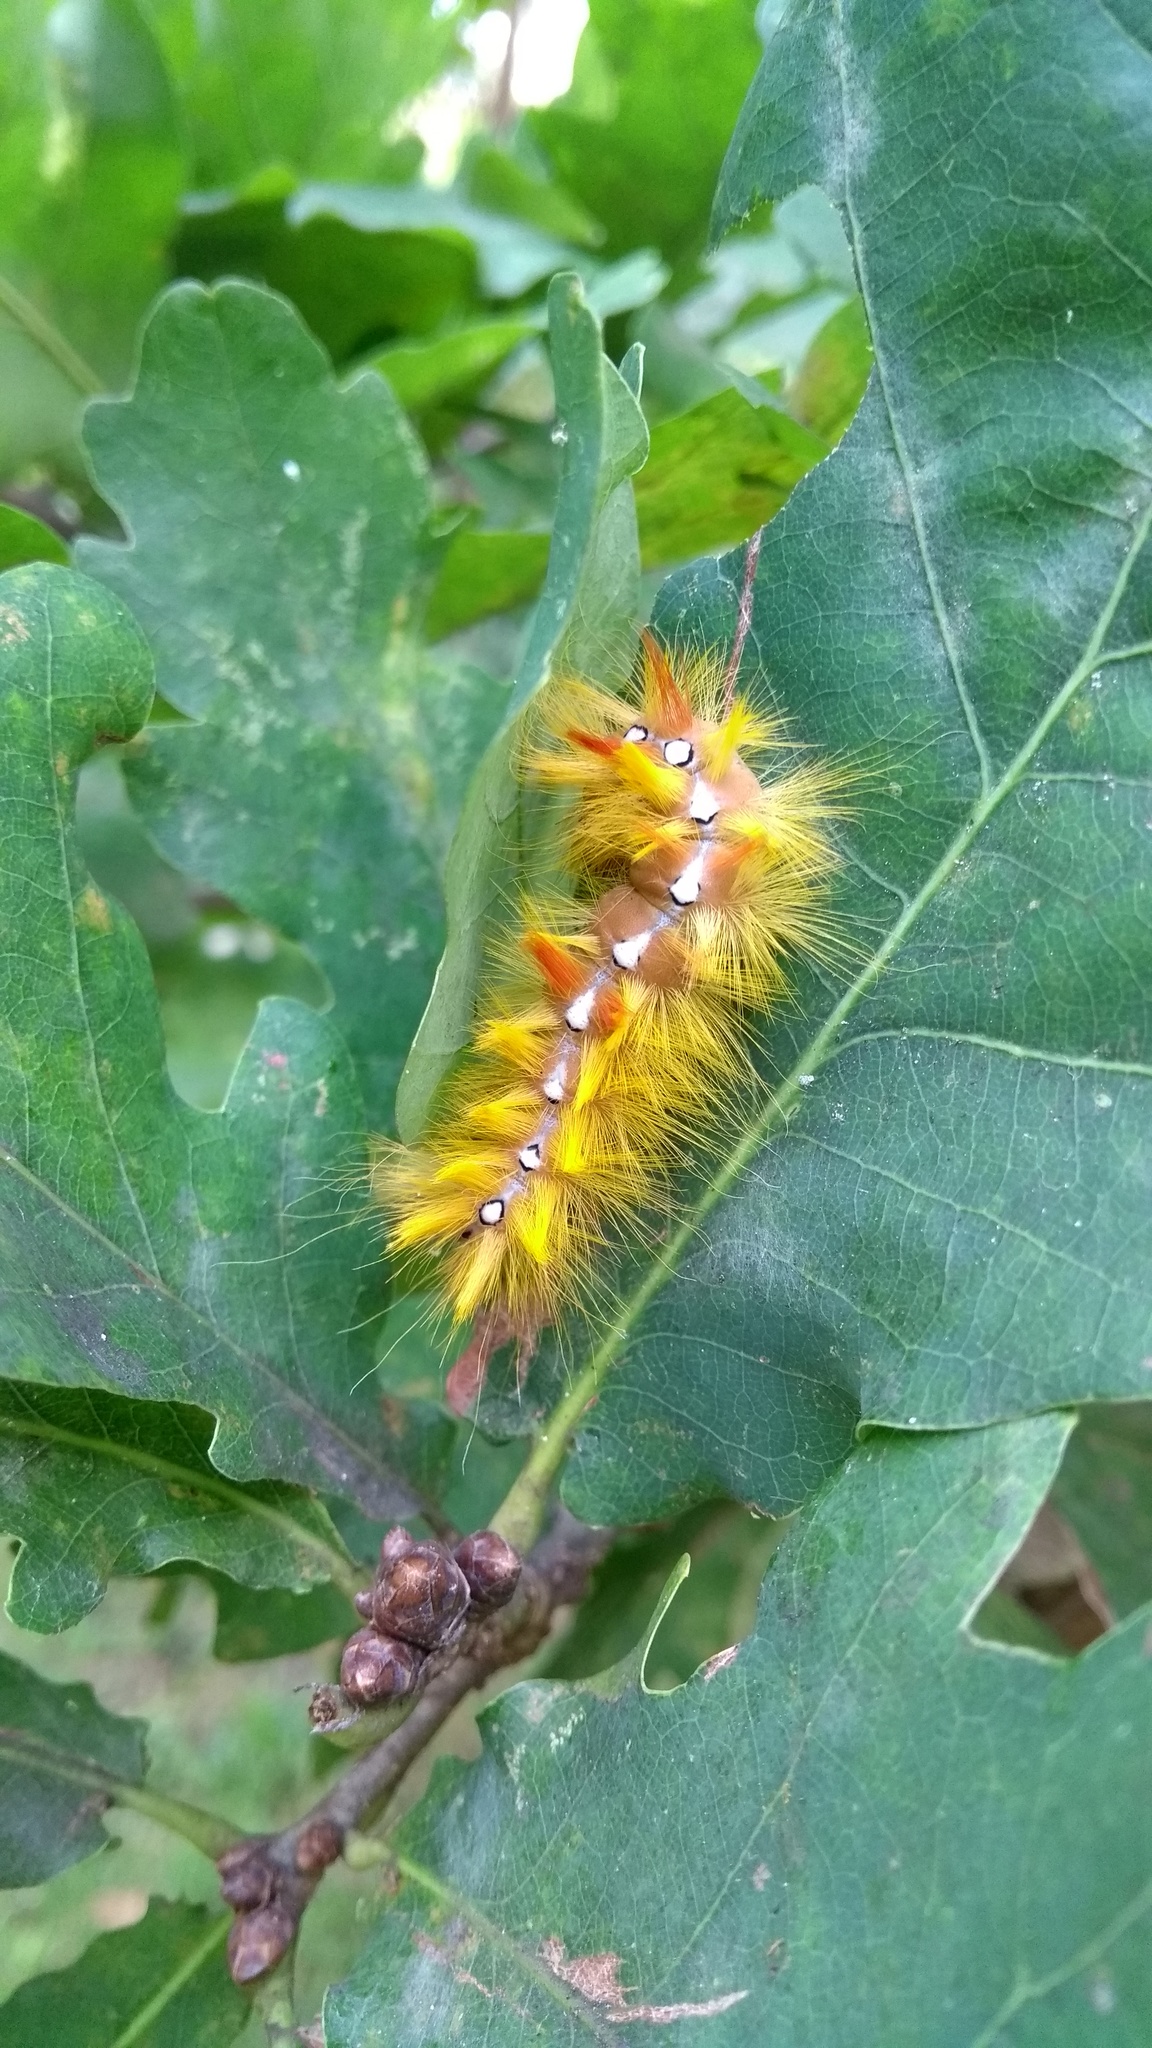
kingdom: Animalia
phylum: Arthropoda
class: Insecta
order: Lepidoptera
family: Noctuidae
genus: Acronicta
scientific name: Acronicta aceris
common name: Sycamore
